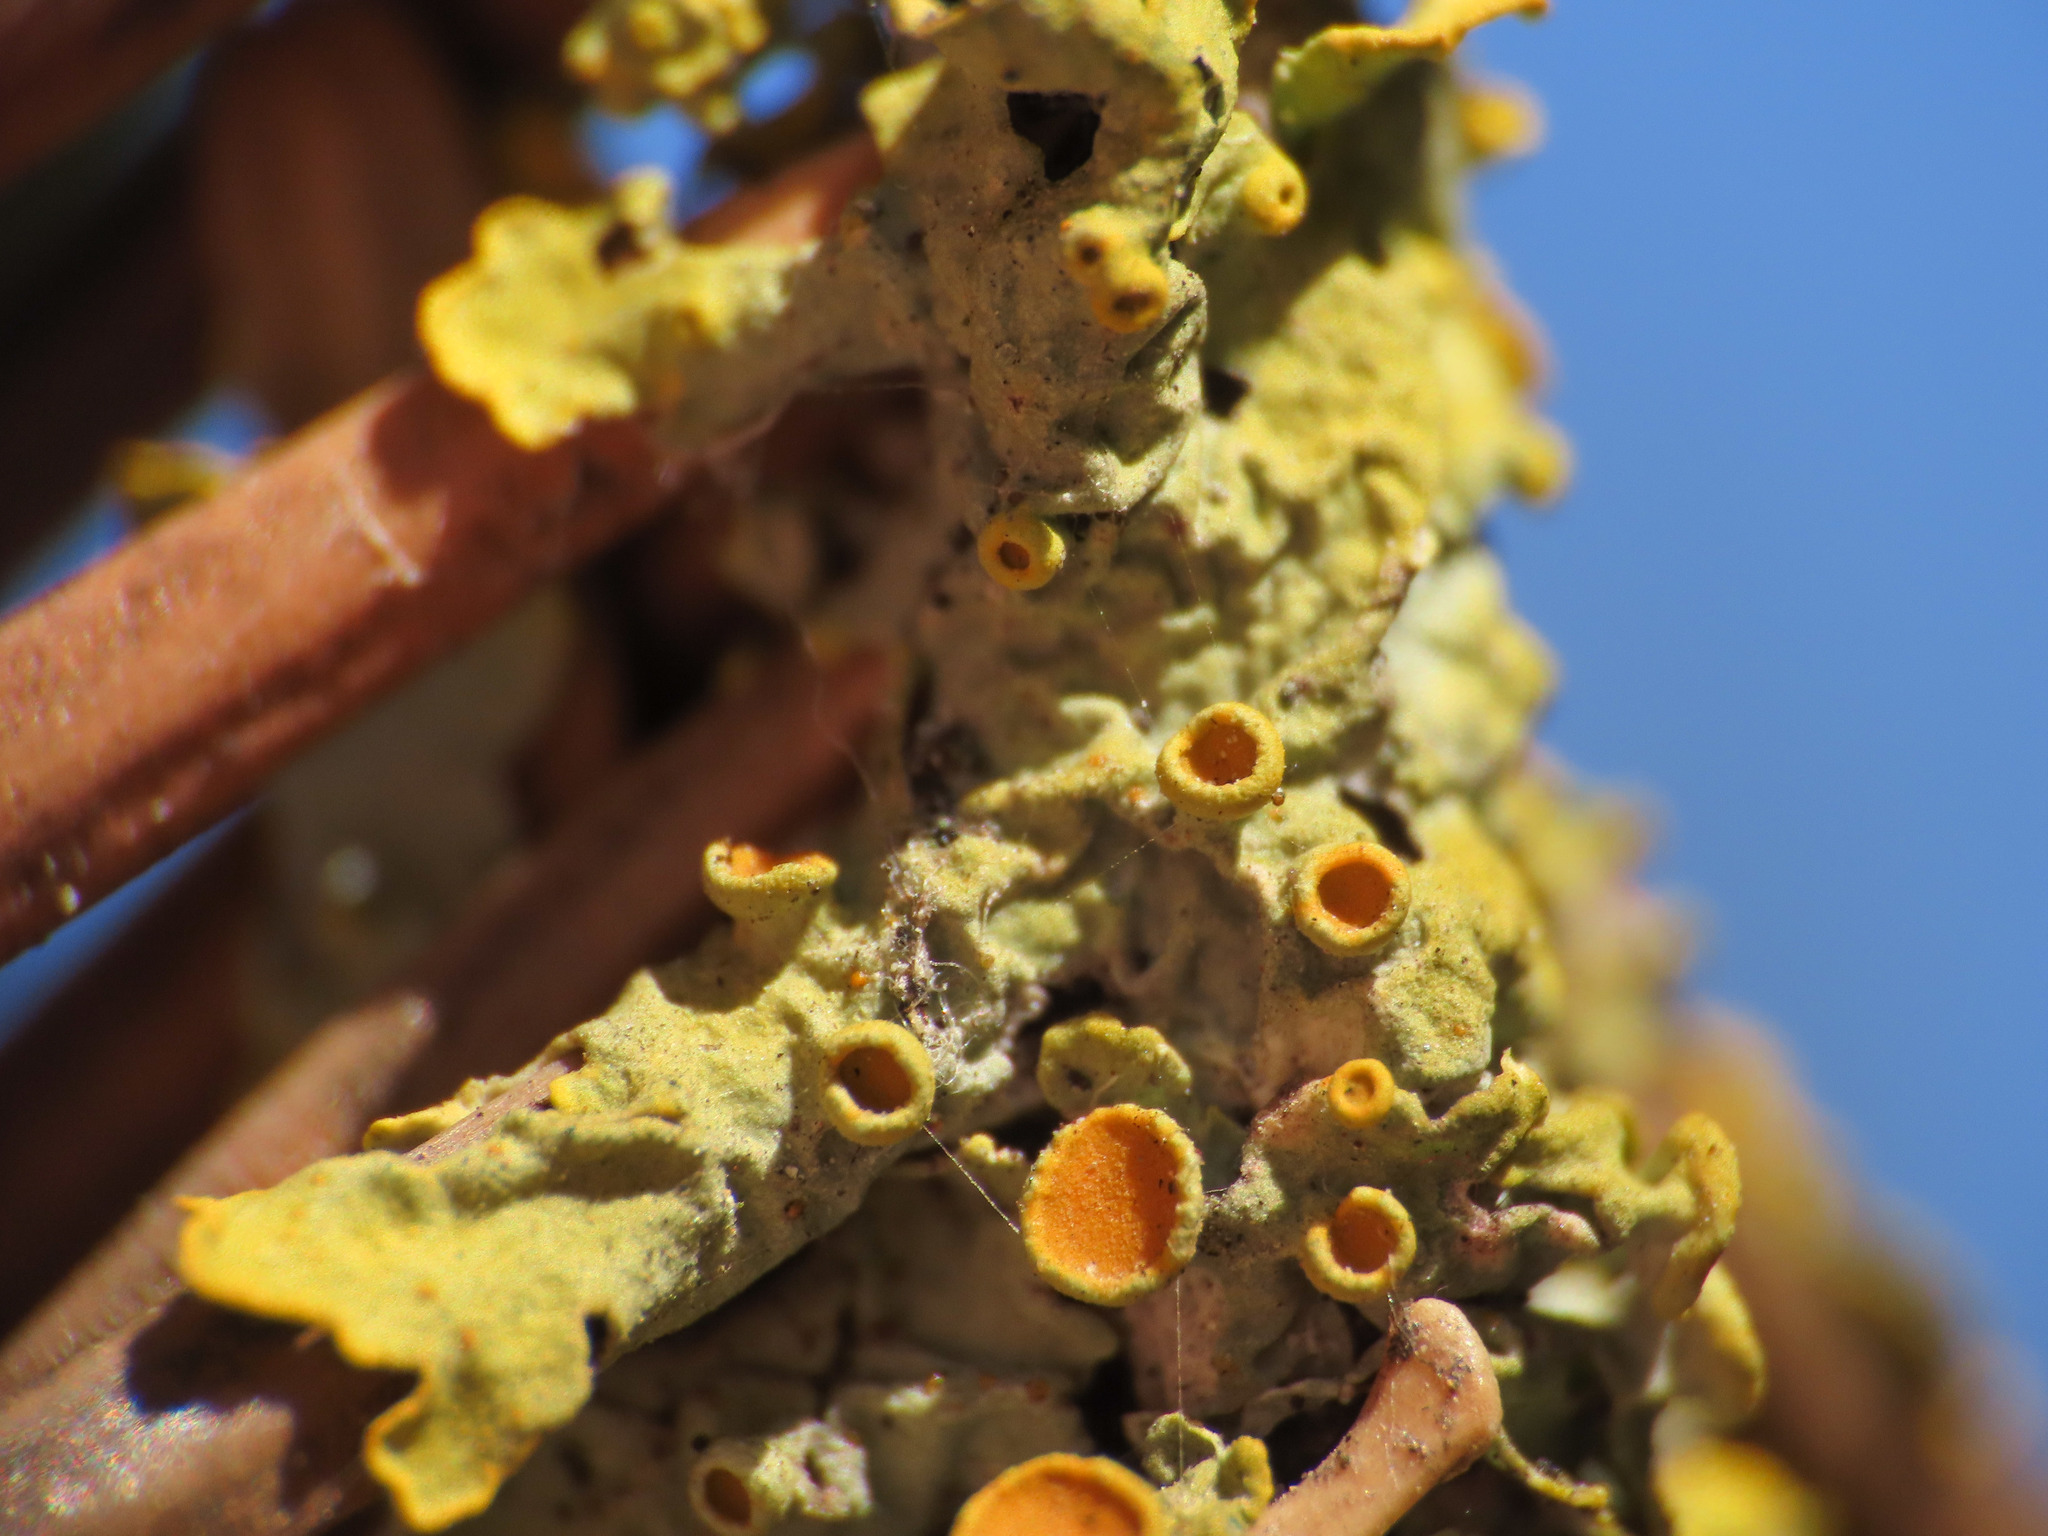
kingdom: Fungi
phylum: Ascomycota
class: Lecanoromycetes
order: Teloschistales
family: Teloschistaceae
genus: Xanthoria
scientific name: Xanthoria parietina
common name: Common orange lichen
